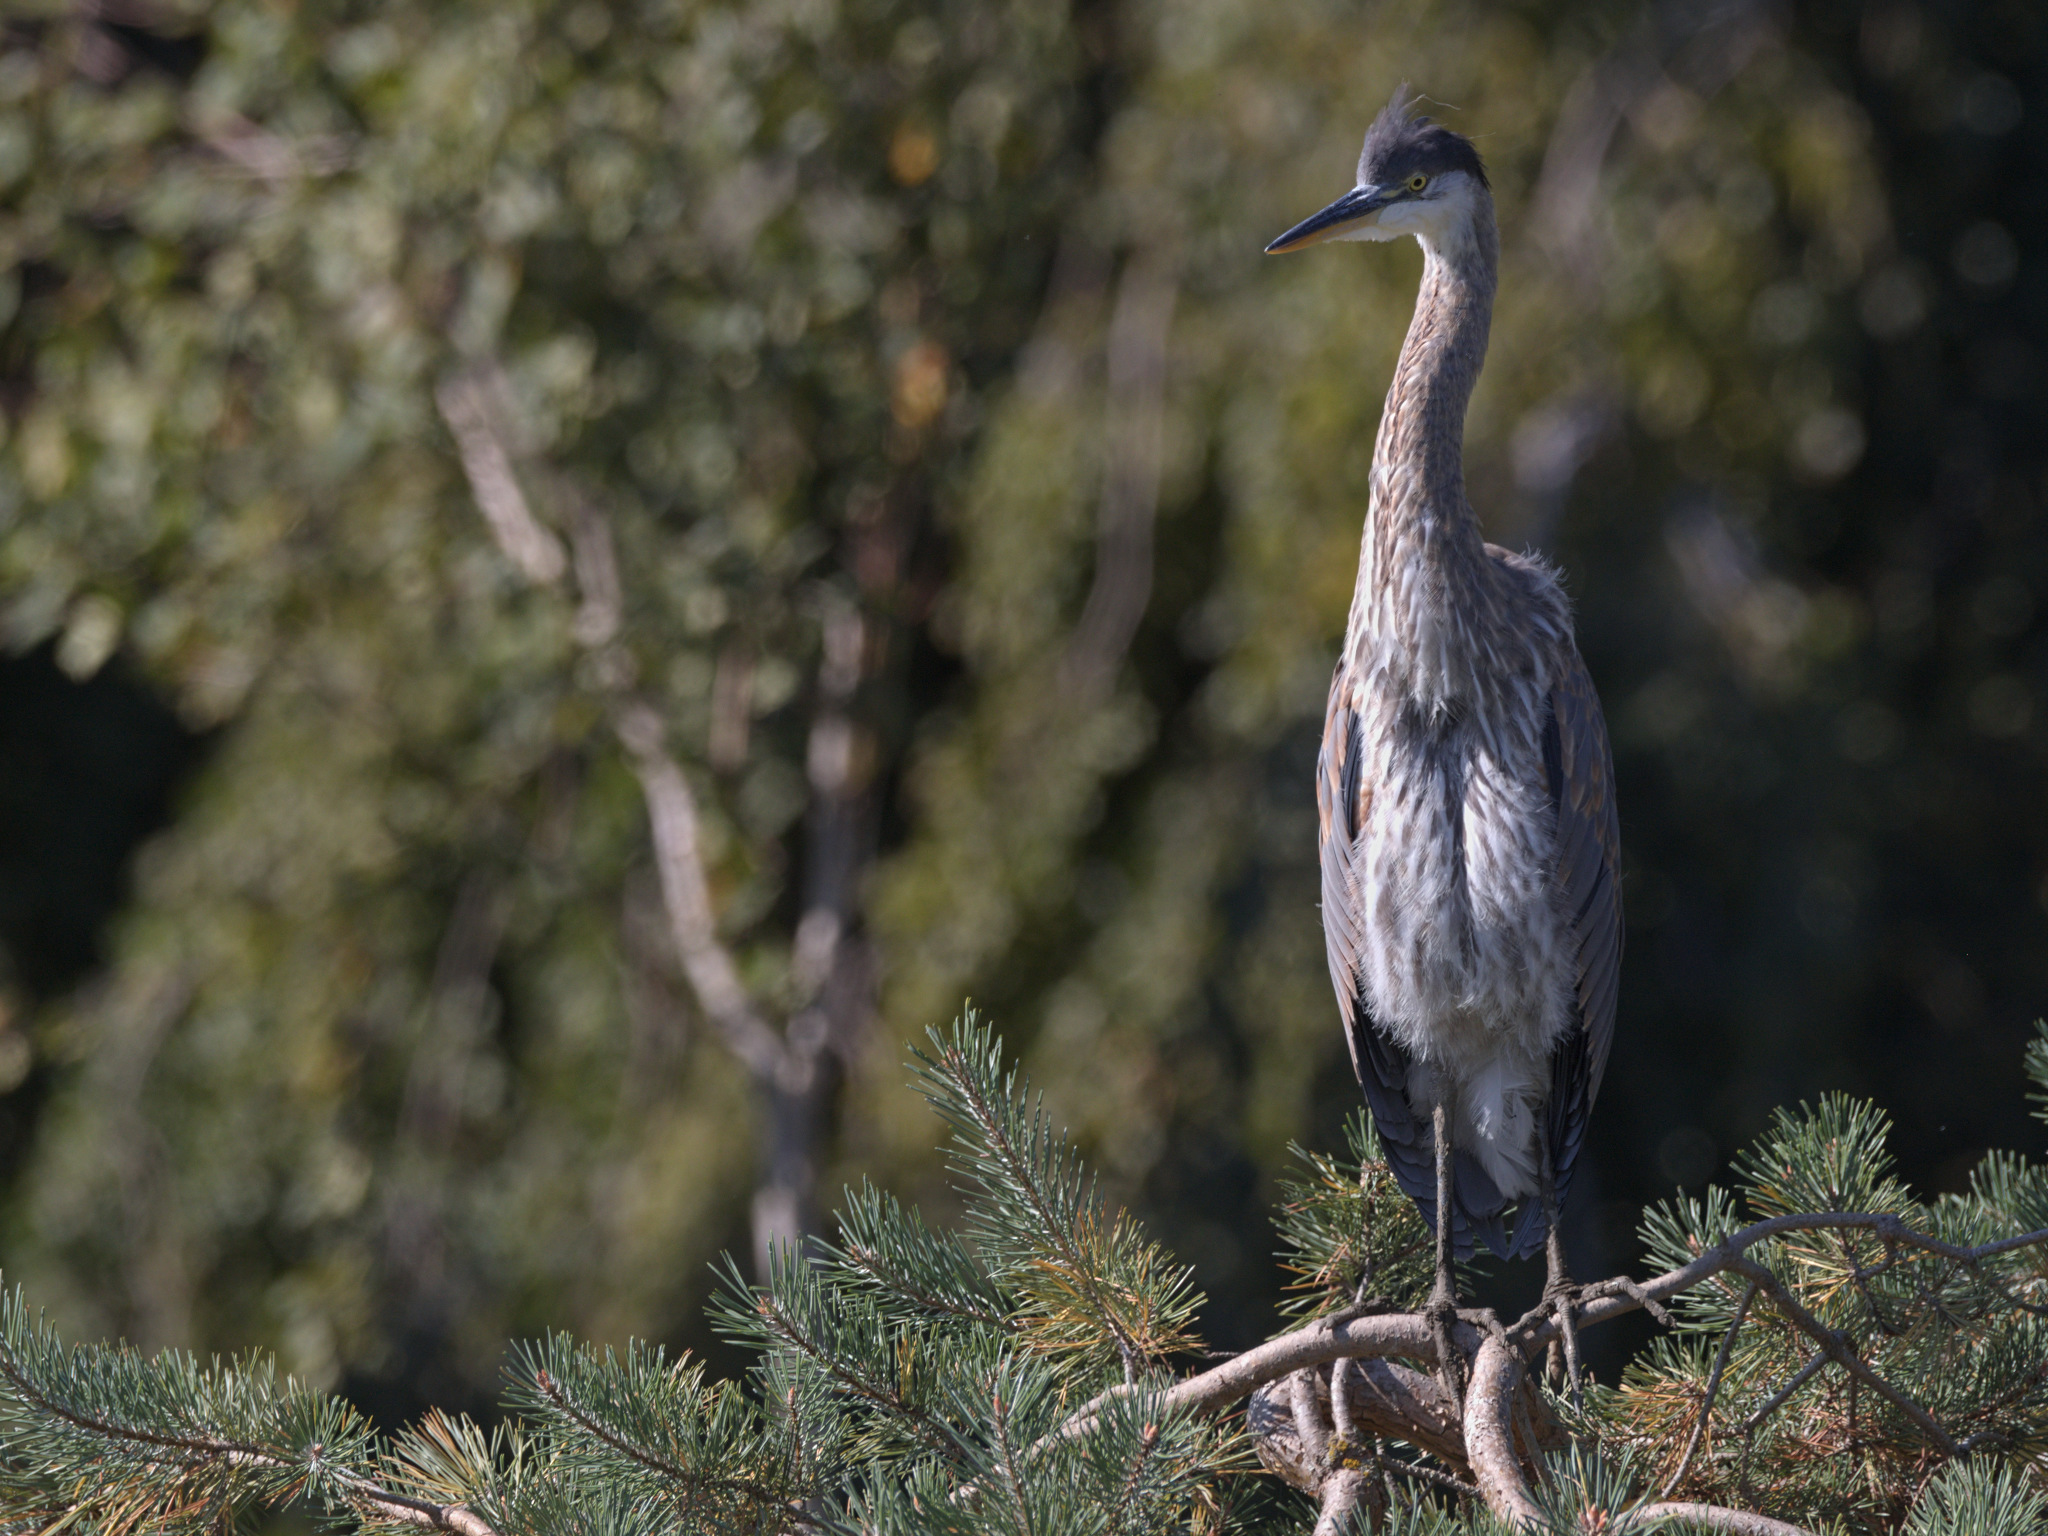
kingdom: Animalia
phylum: Chordata
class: Aves
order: Pelecaniformes
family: Ardeidae
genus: Ardea
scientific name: Ardea herodias
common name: Great blue heron
